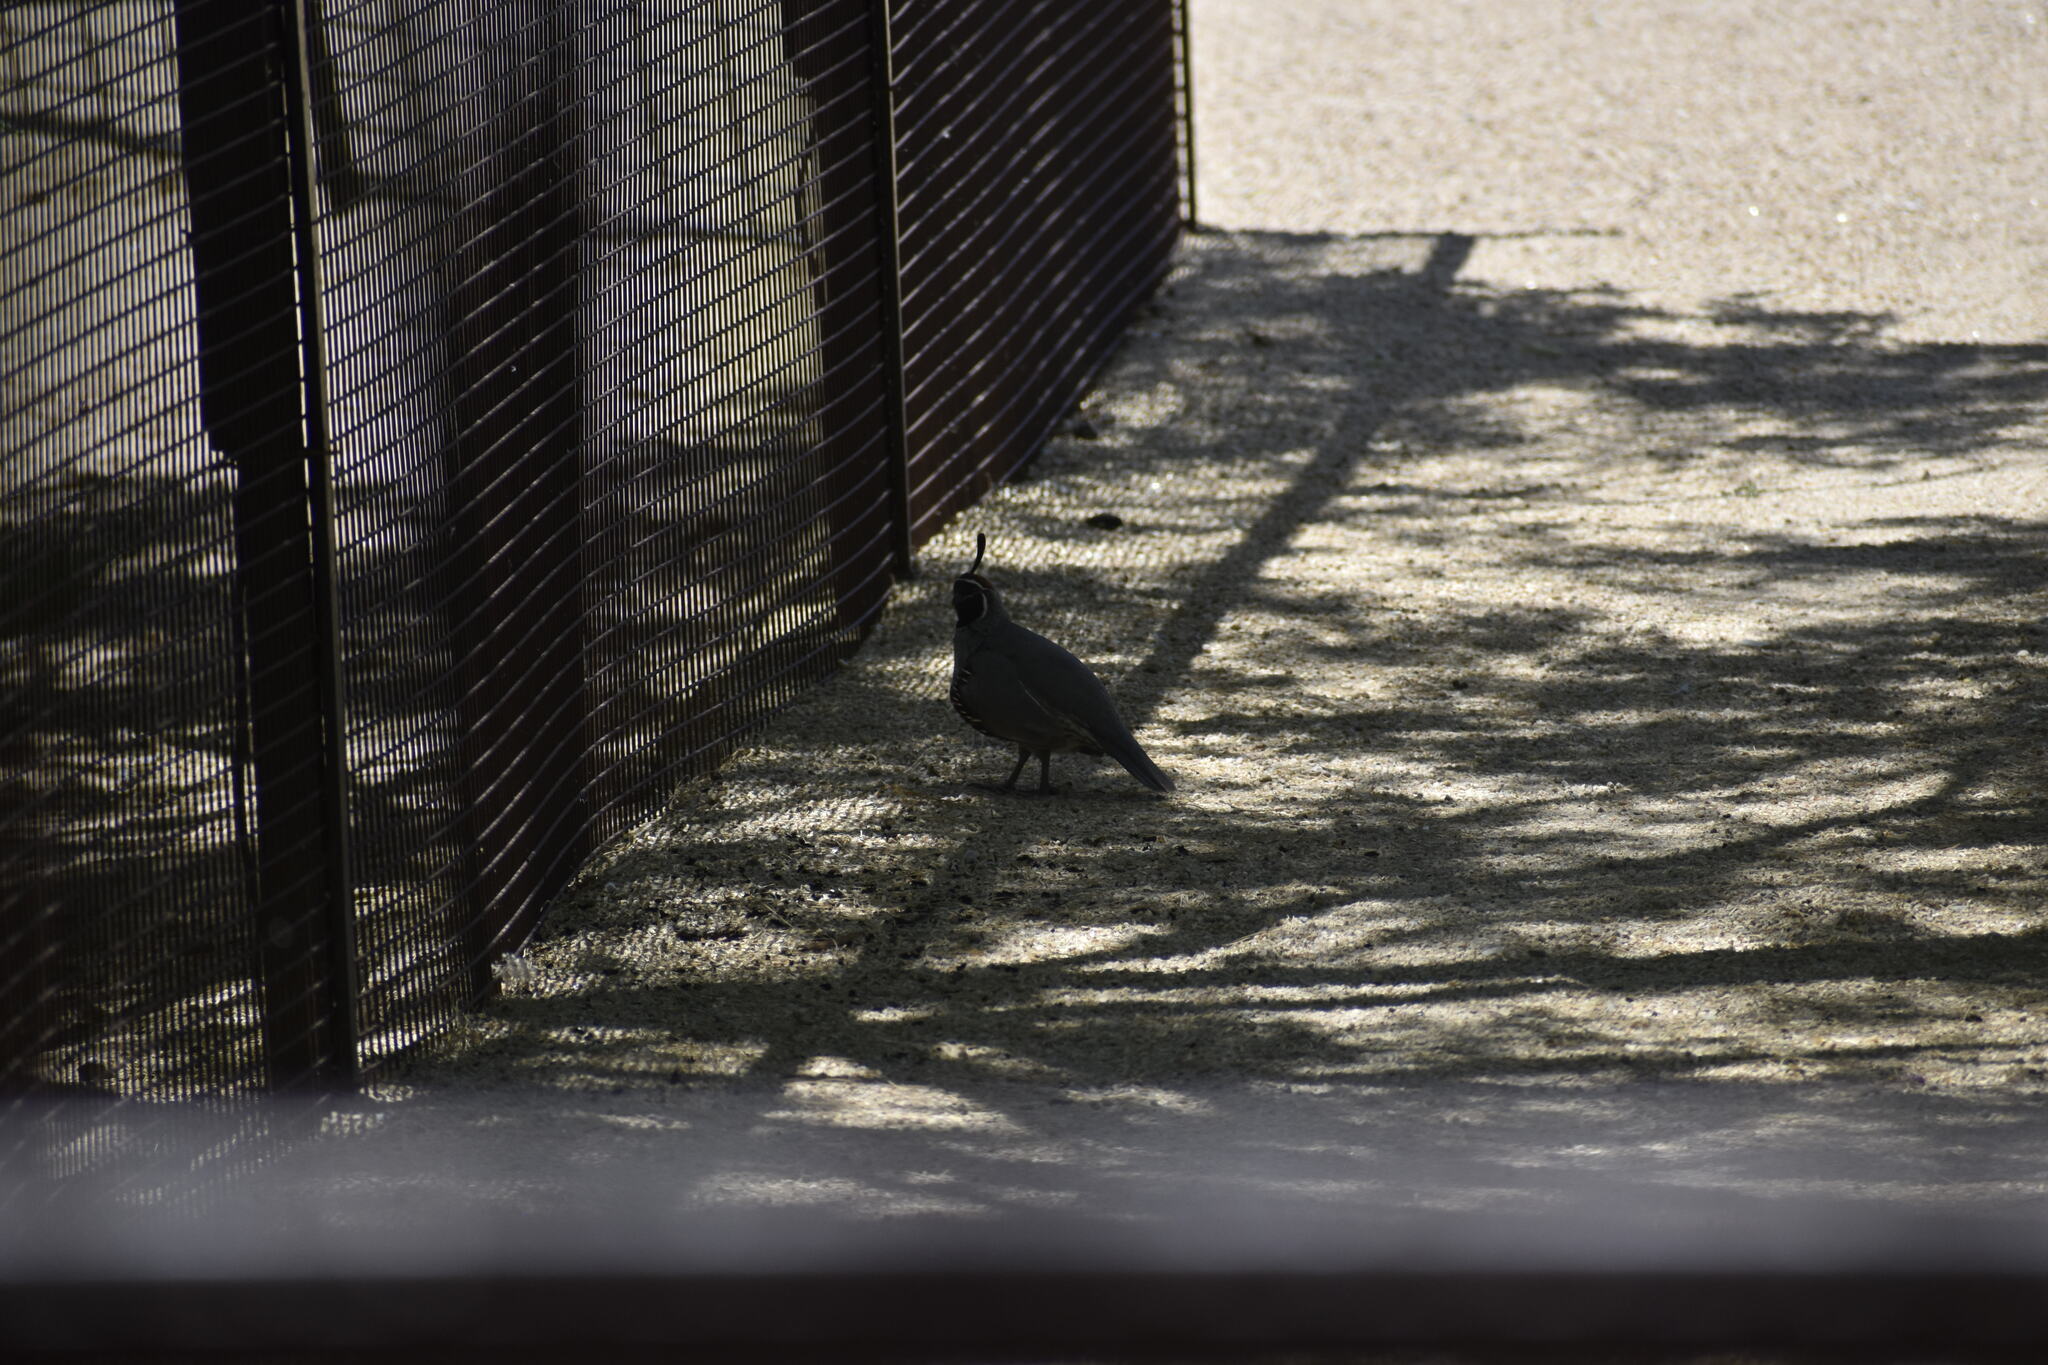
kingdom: Animalia
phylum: Chordata
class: Aves
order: Galliformes
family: Odontophoridae
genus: Callipepla
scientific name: Callipepla gambelii
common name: Gambel's quail
